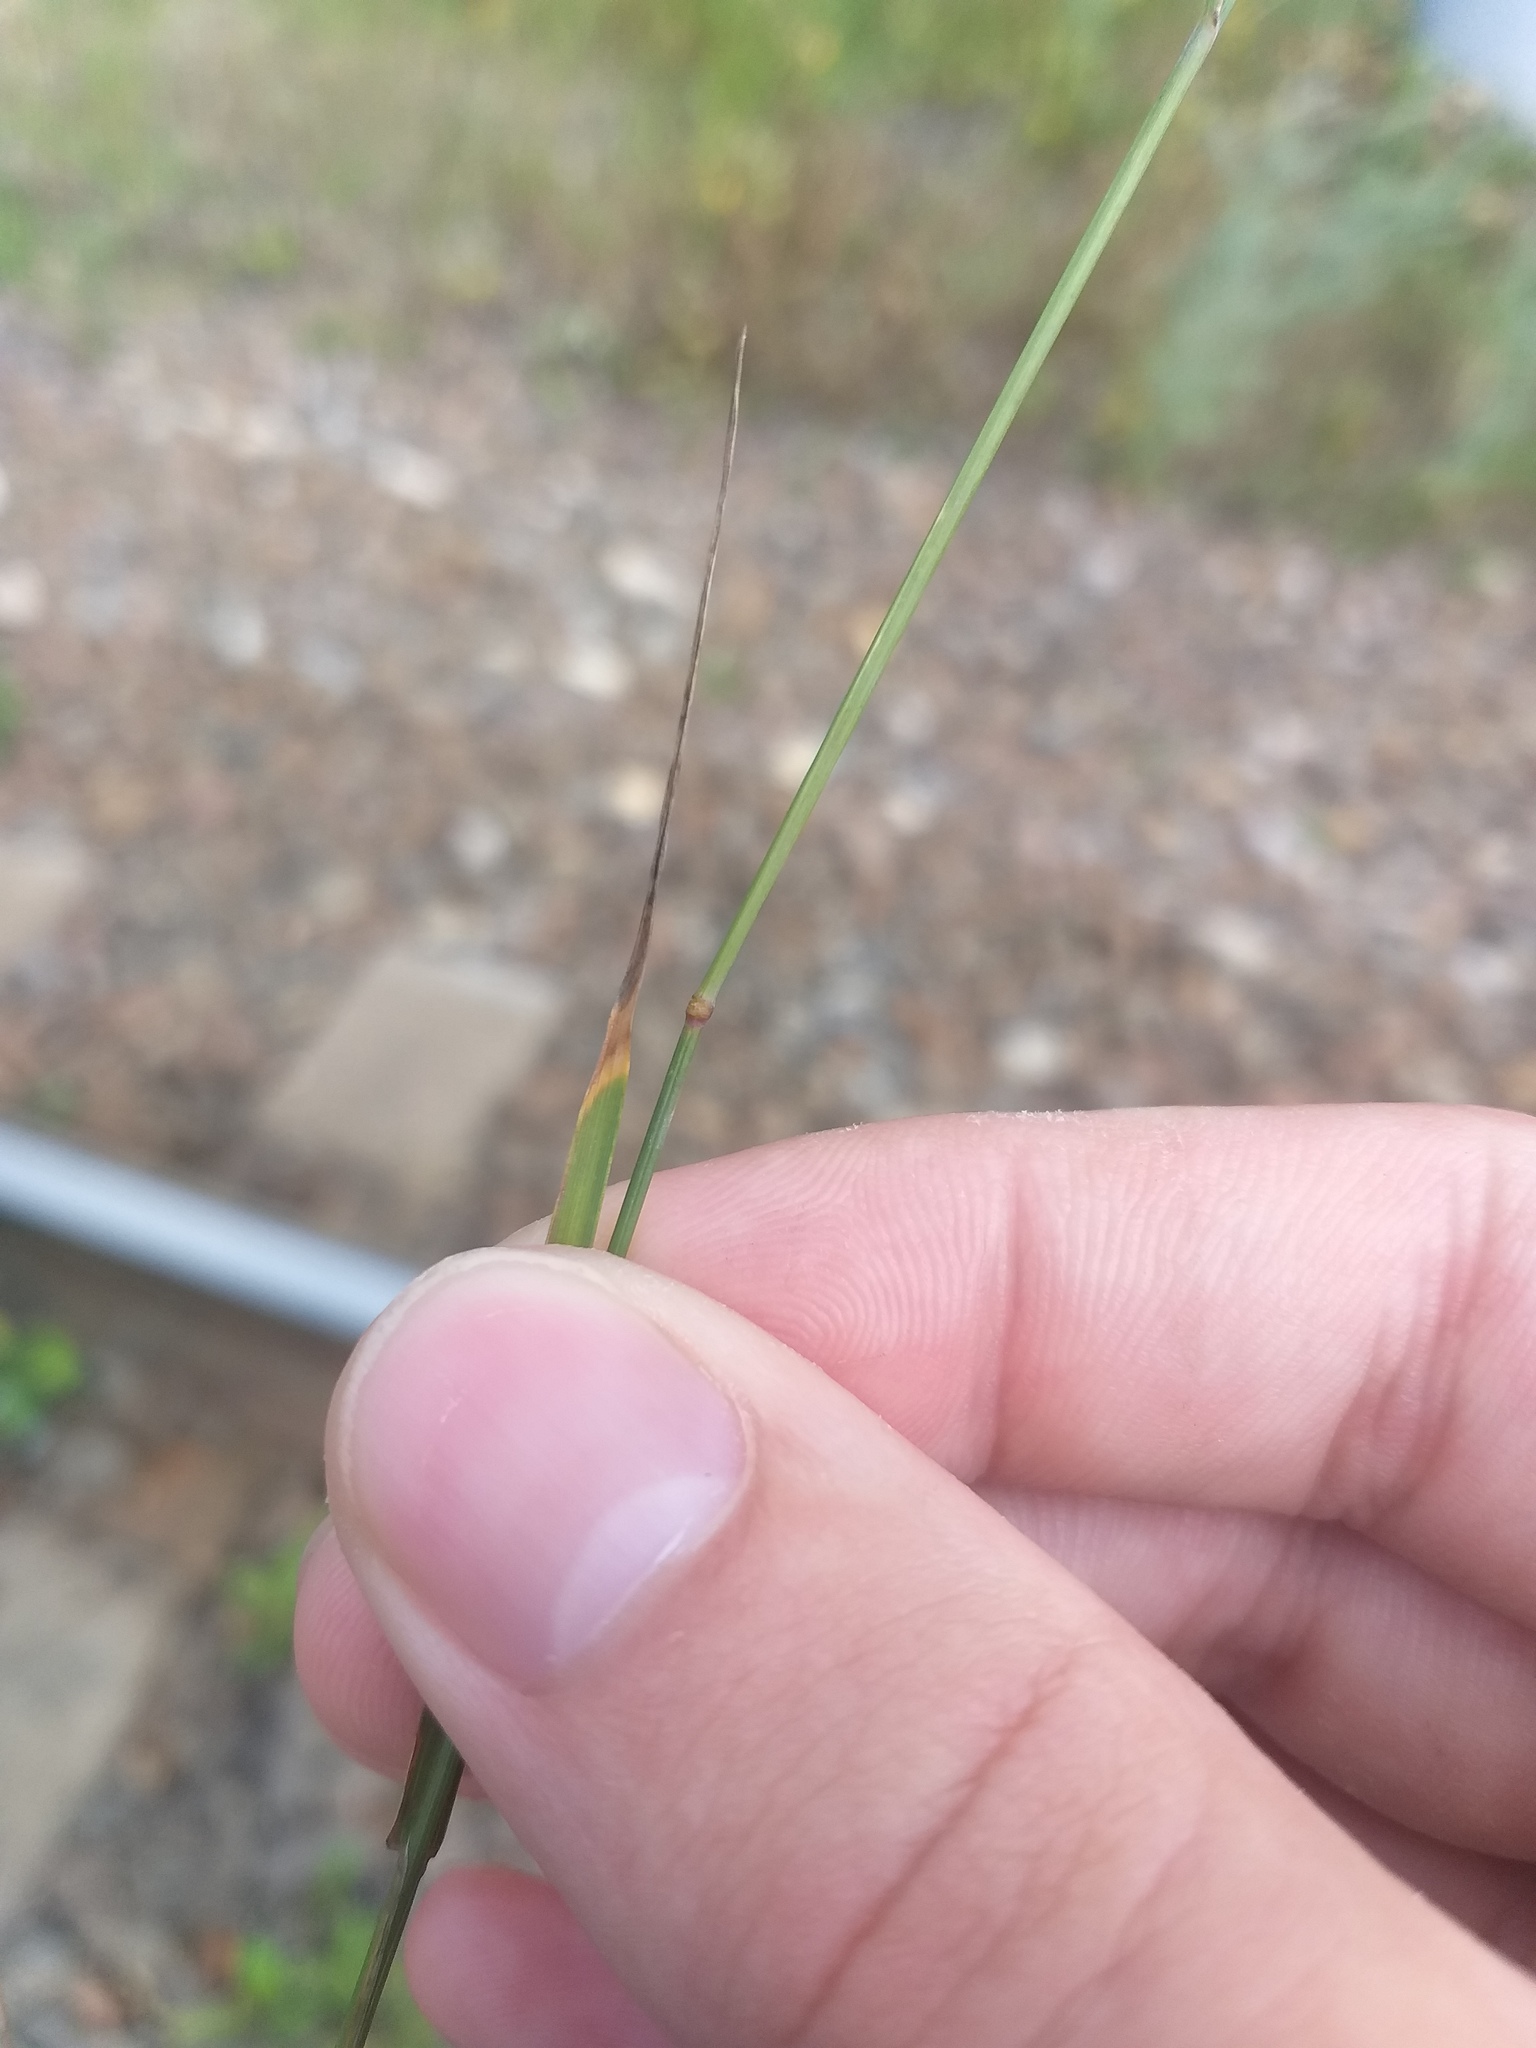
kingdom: Plantae
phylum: Tracheophyta
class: Liliopsida
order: Poales
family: Poaceae
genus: Poa
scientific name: Poa compressa
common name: Canada bluegrass
